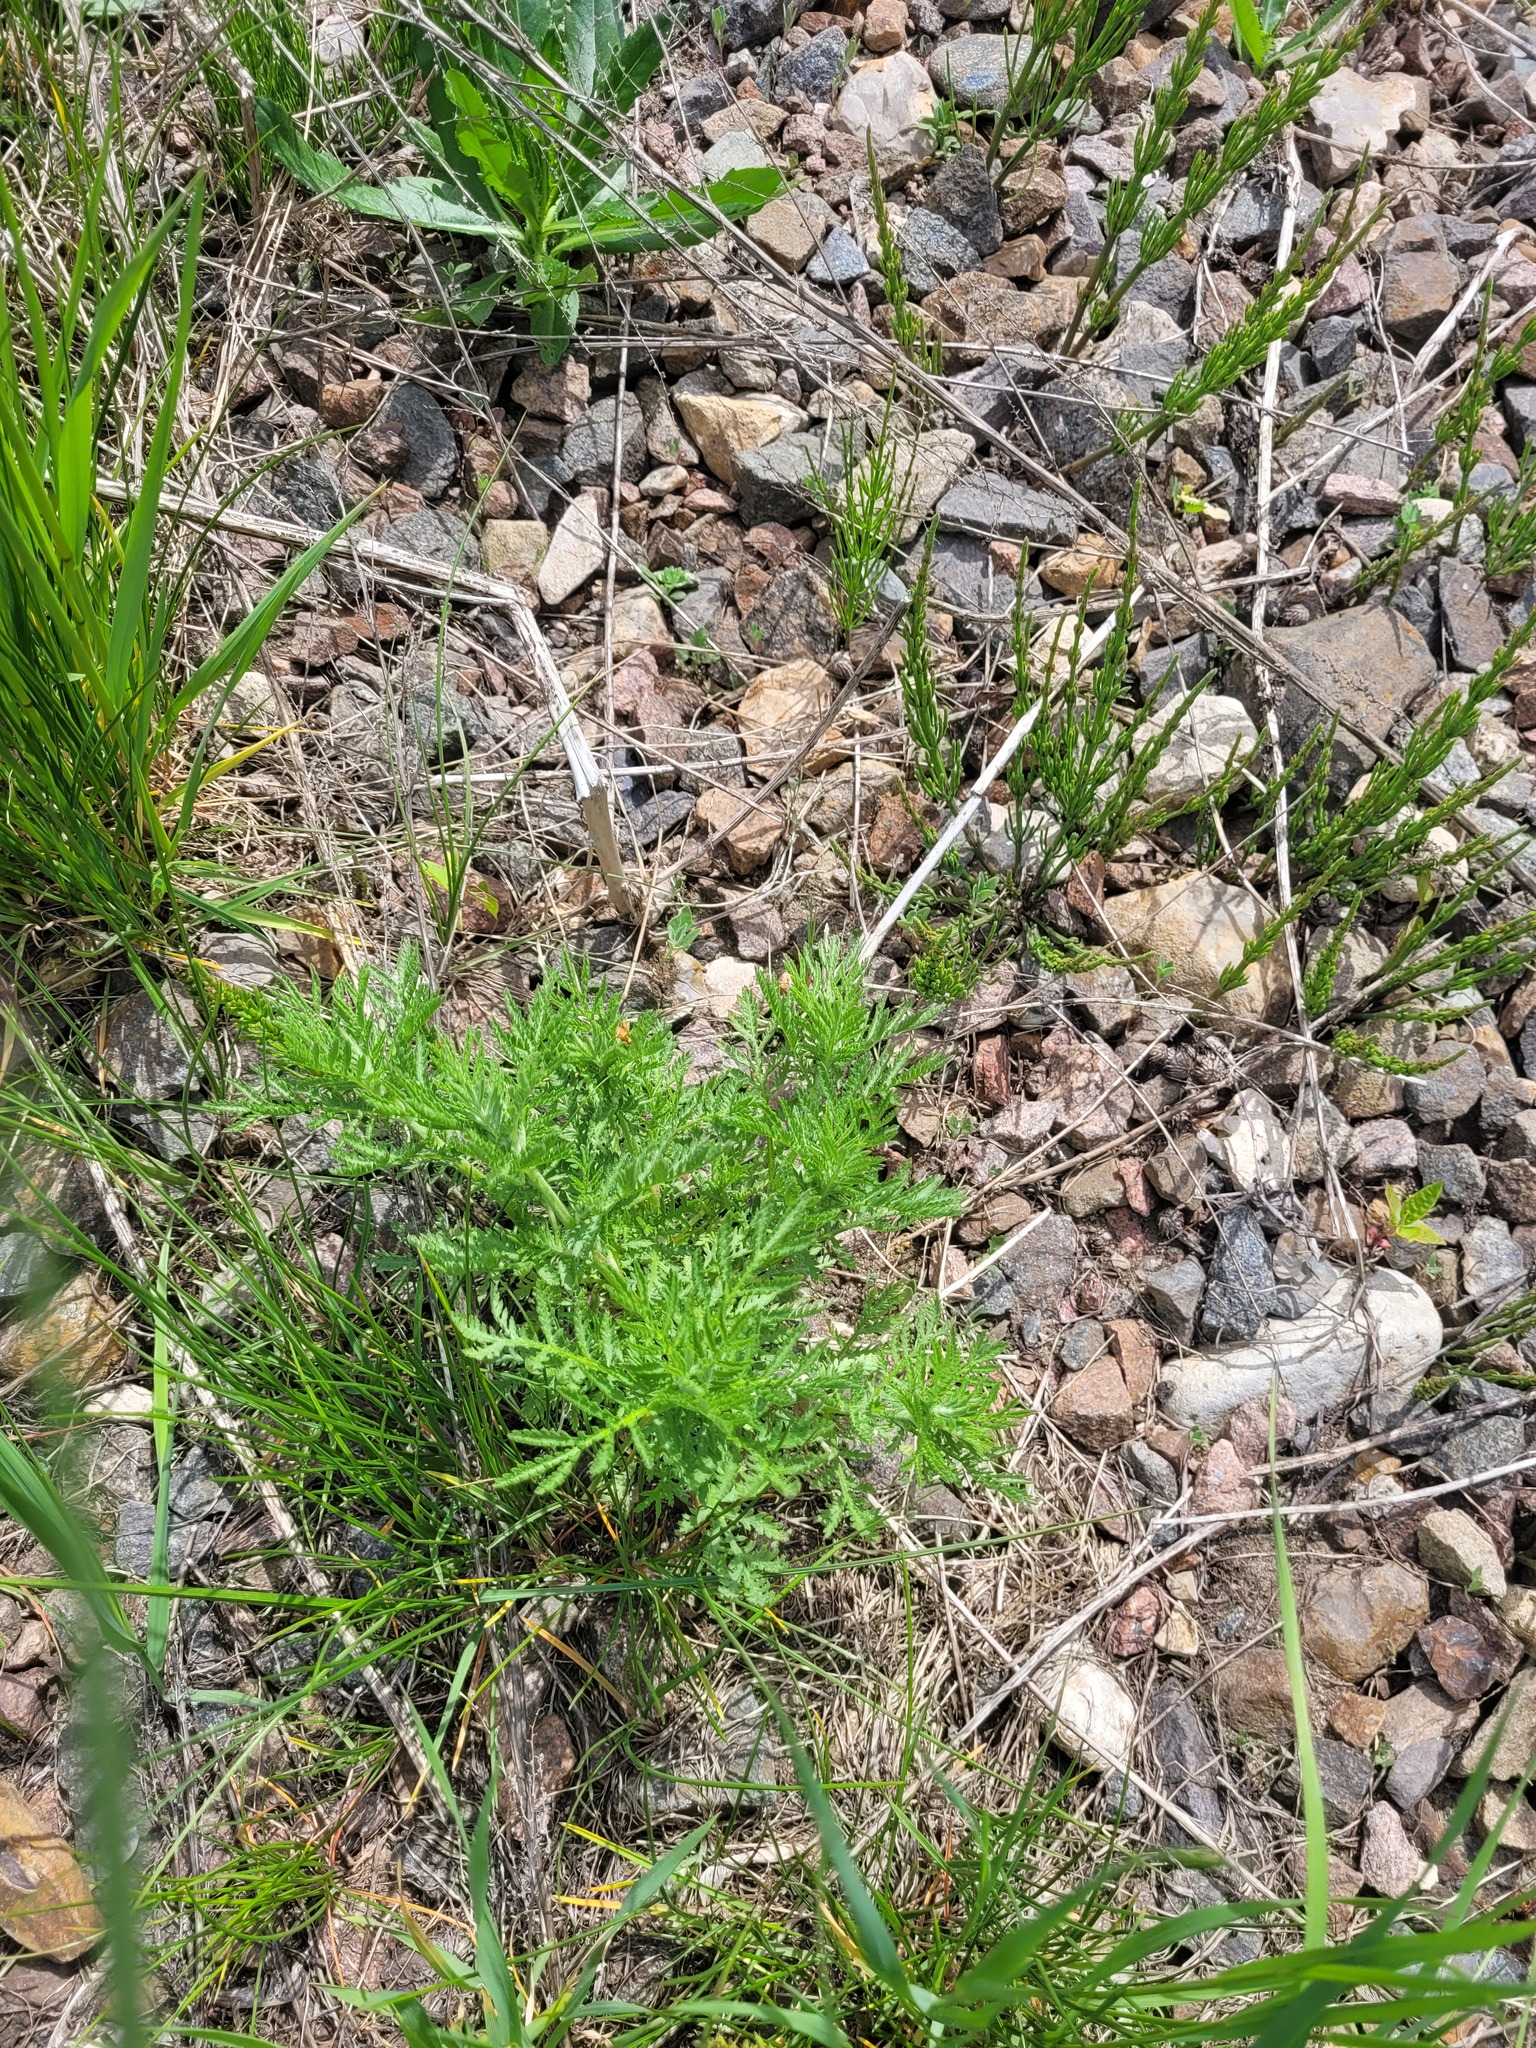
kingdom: Plantae
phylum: Tracheophyta
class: Magnoliopsida
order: Asterales
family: Asteraceae
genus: Cota
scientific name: Cota tinctoria
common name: Golden chamomile
